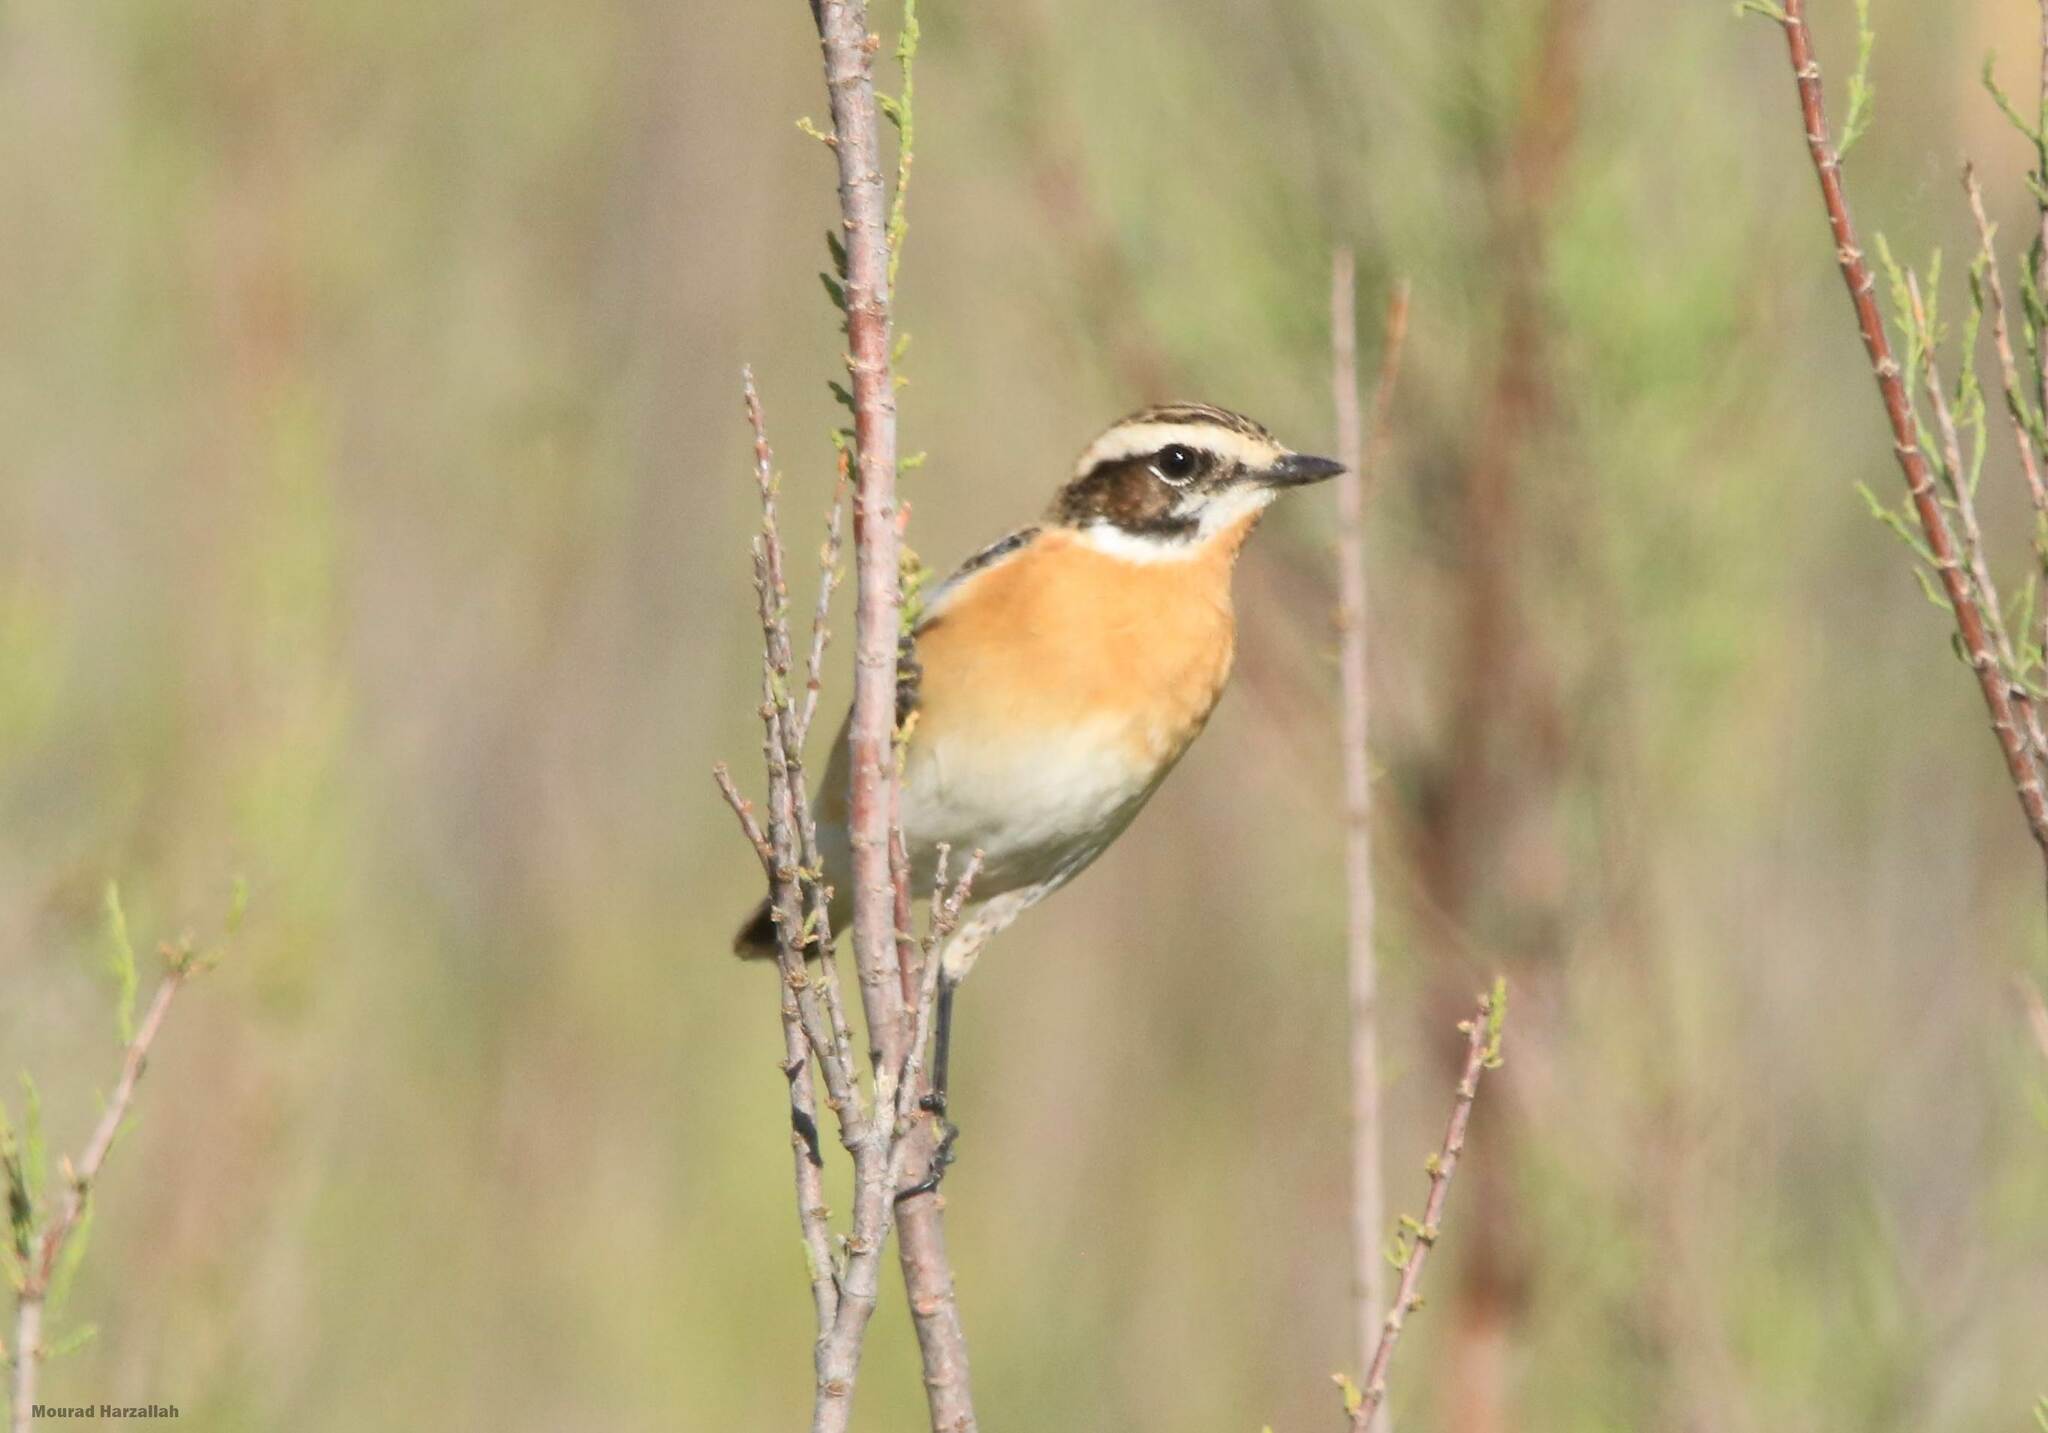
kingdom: Animalia
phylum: Chordata
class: Aves
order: Passeriformes
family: Muscicapidae
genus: Saxicola
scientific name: Saxicola rubetra
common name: Whinchat
